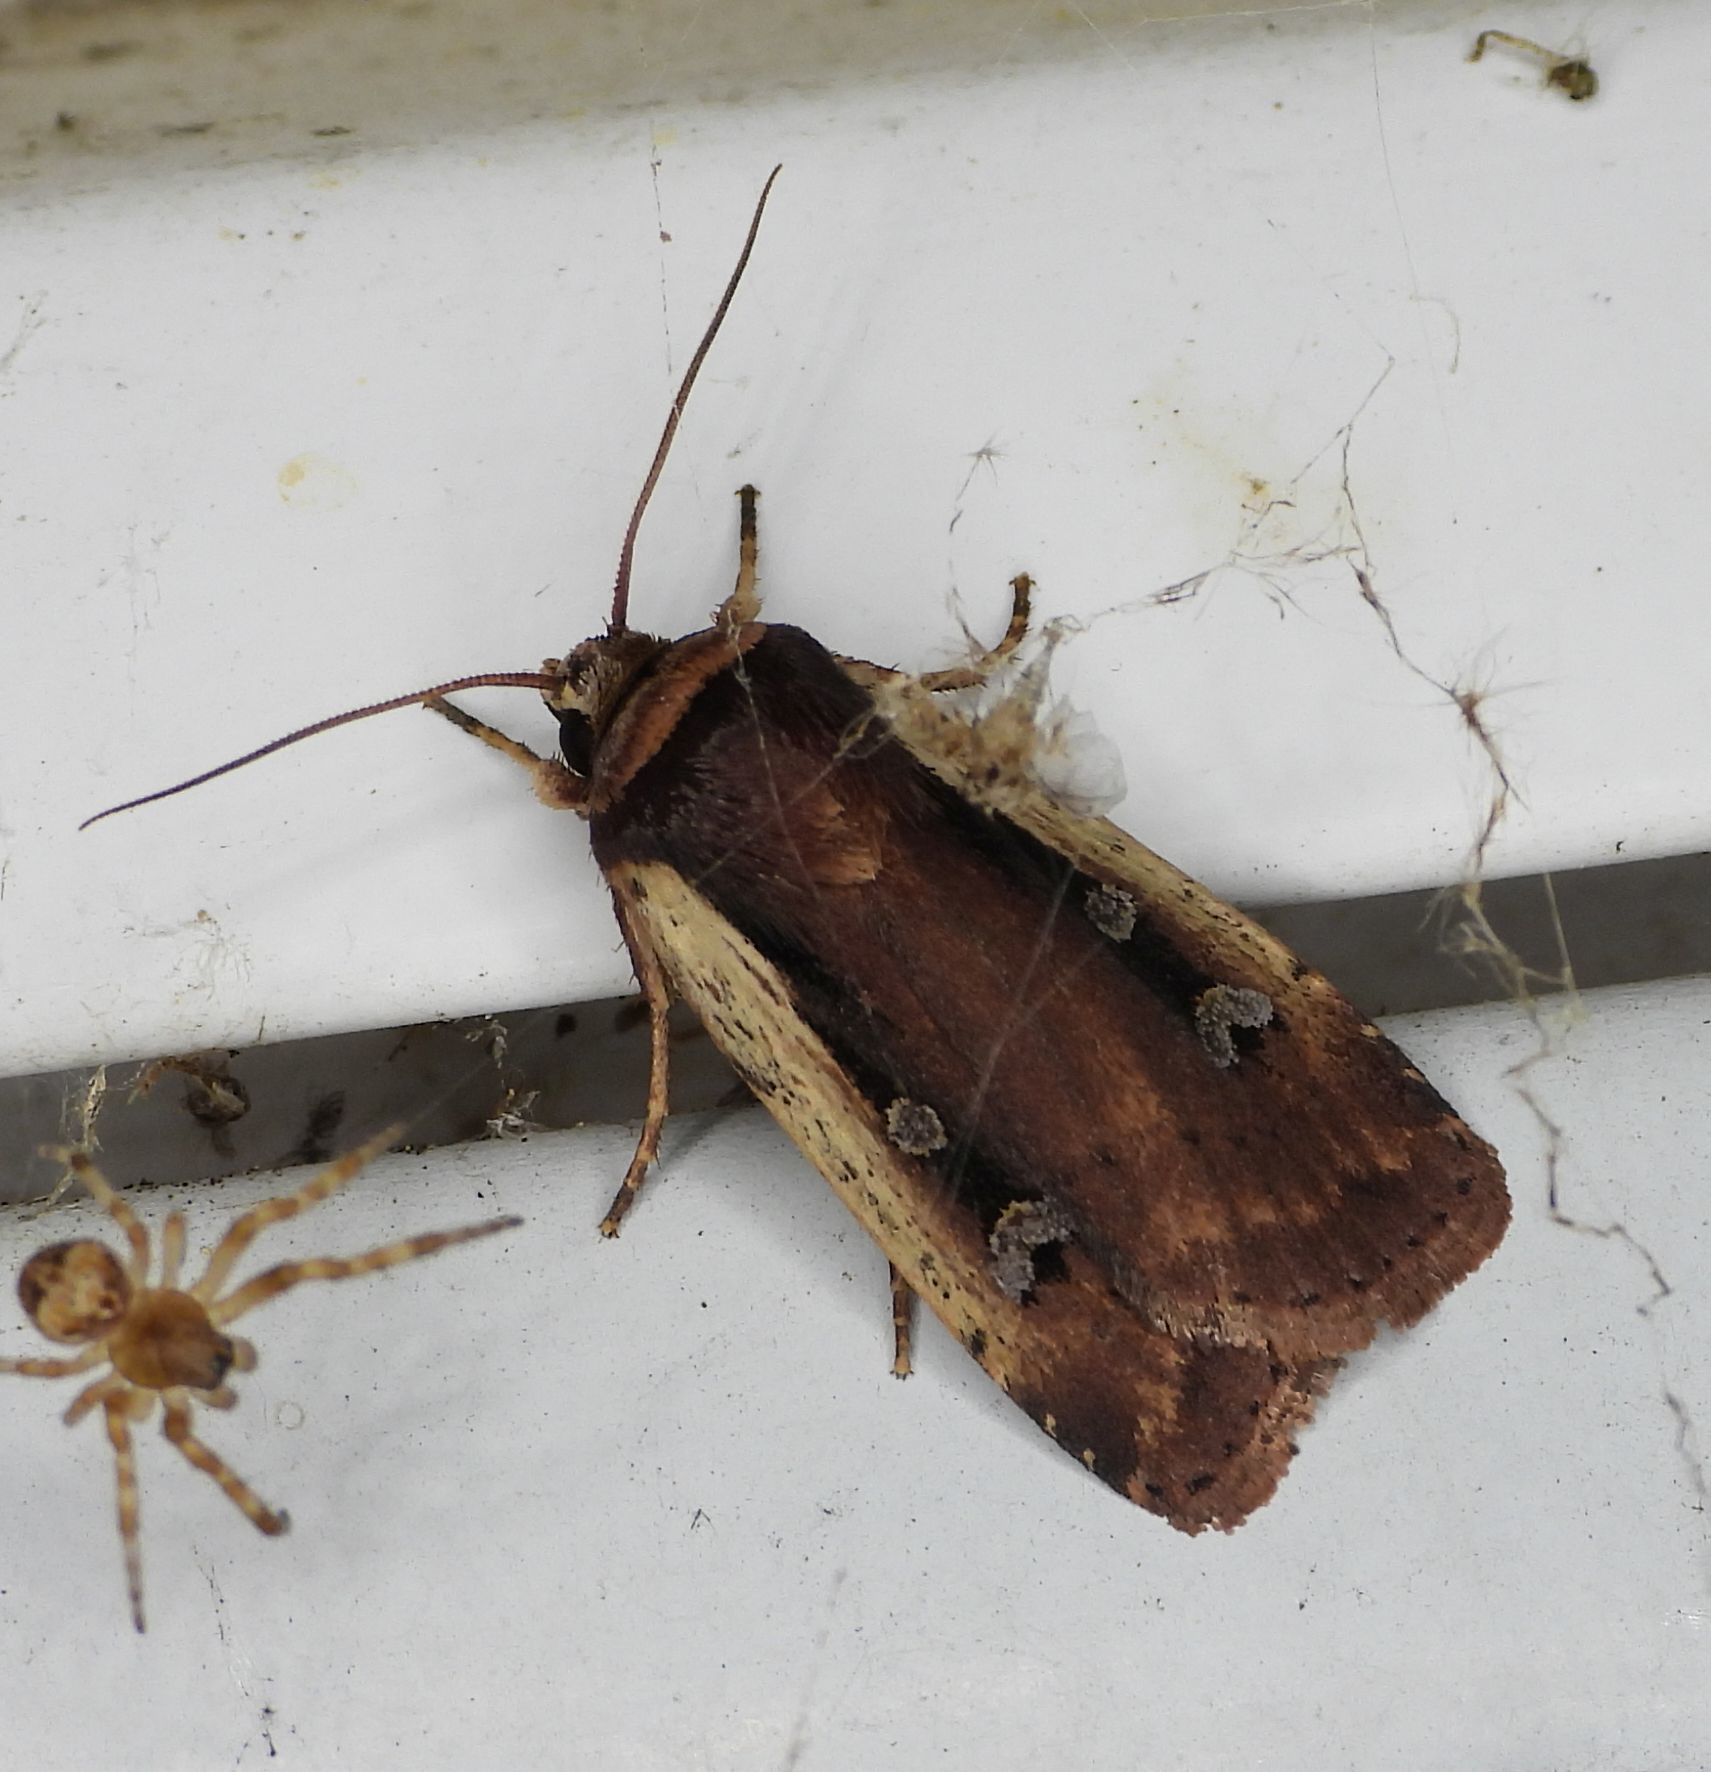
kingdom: Animalia
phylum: Arthropoda
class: Insecta
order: Lepidoptera
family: Noctuidae
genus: Ochropleura
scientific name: Ochropleura implecta
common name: Flame-shouldered dart
